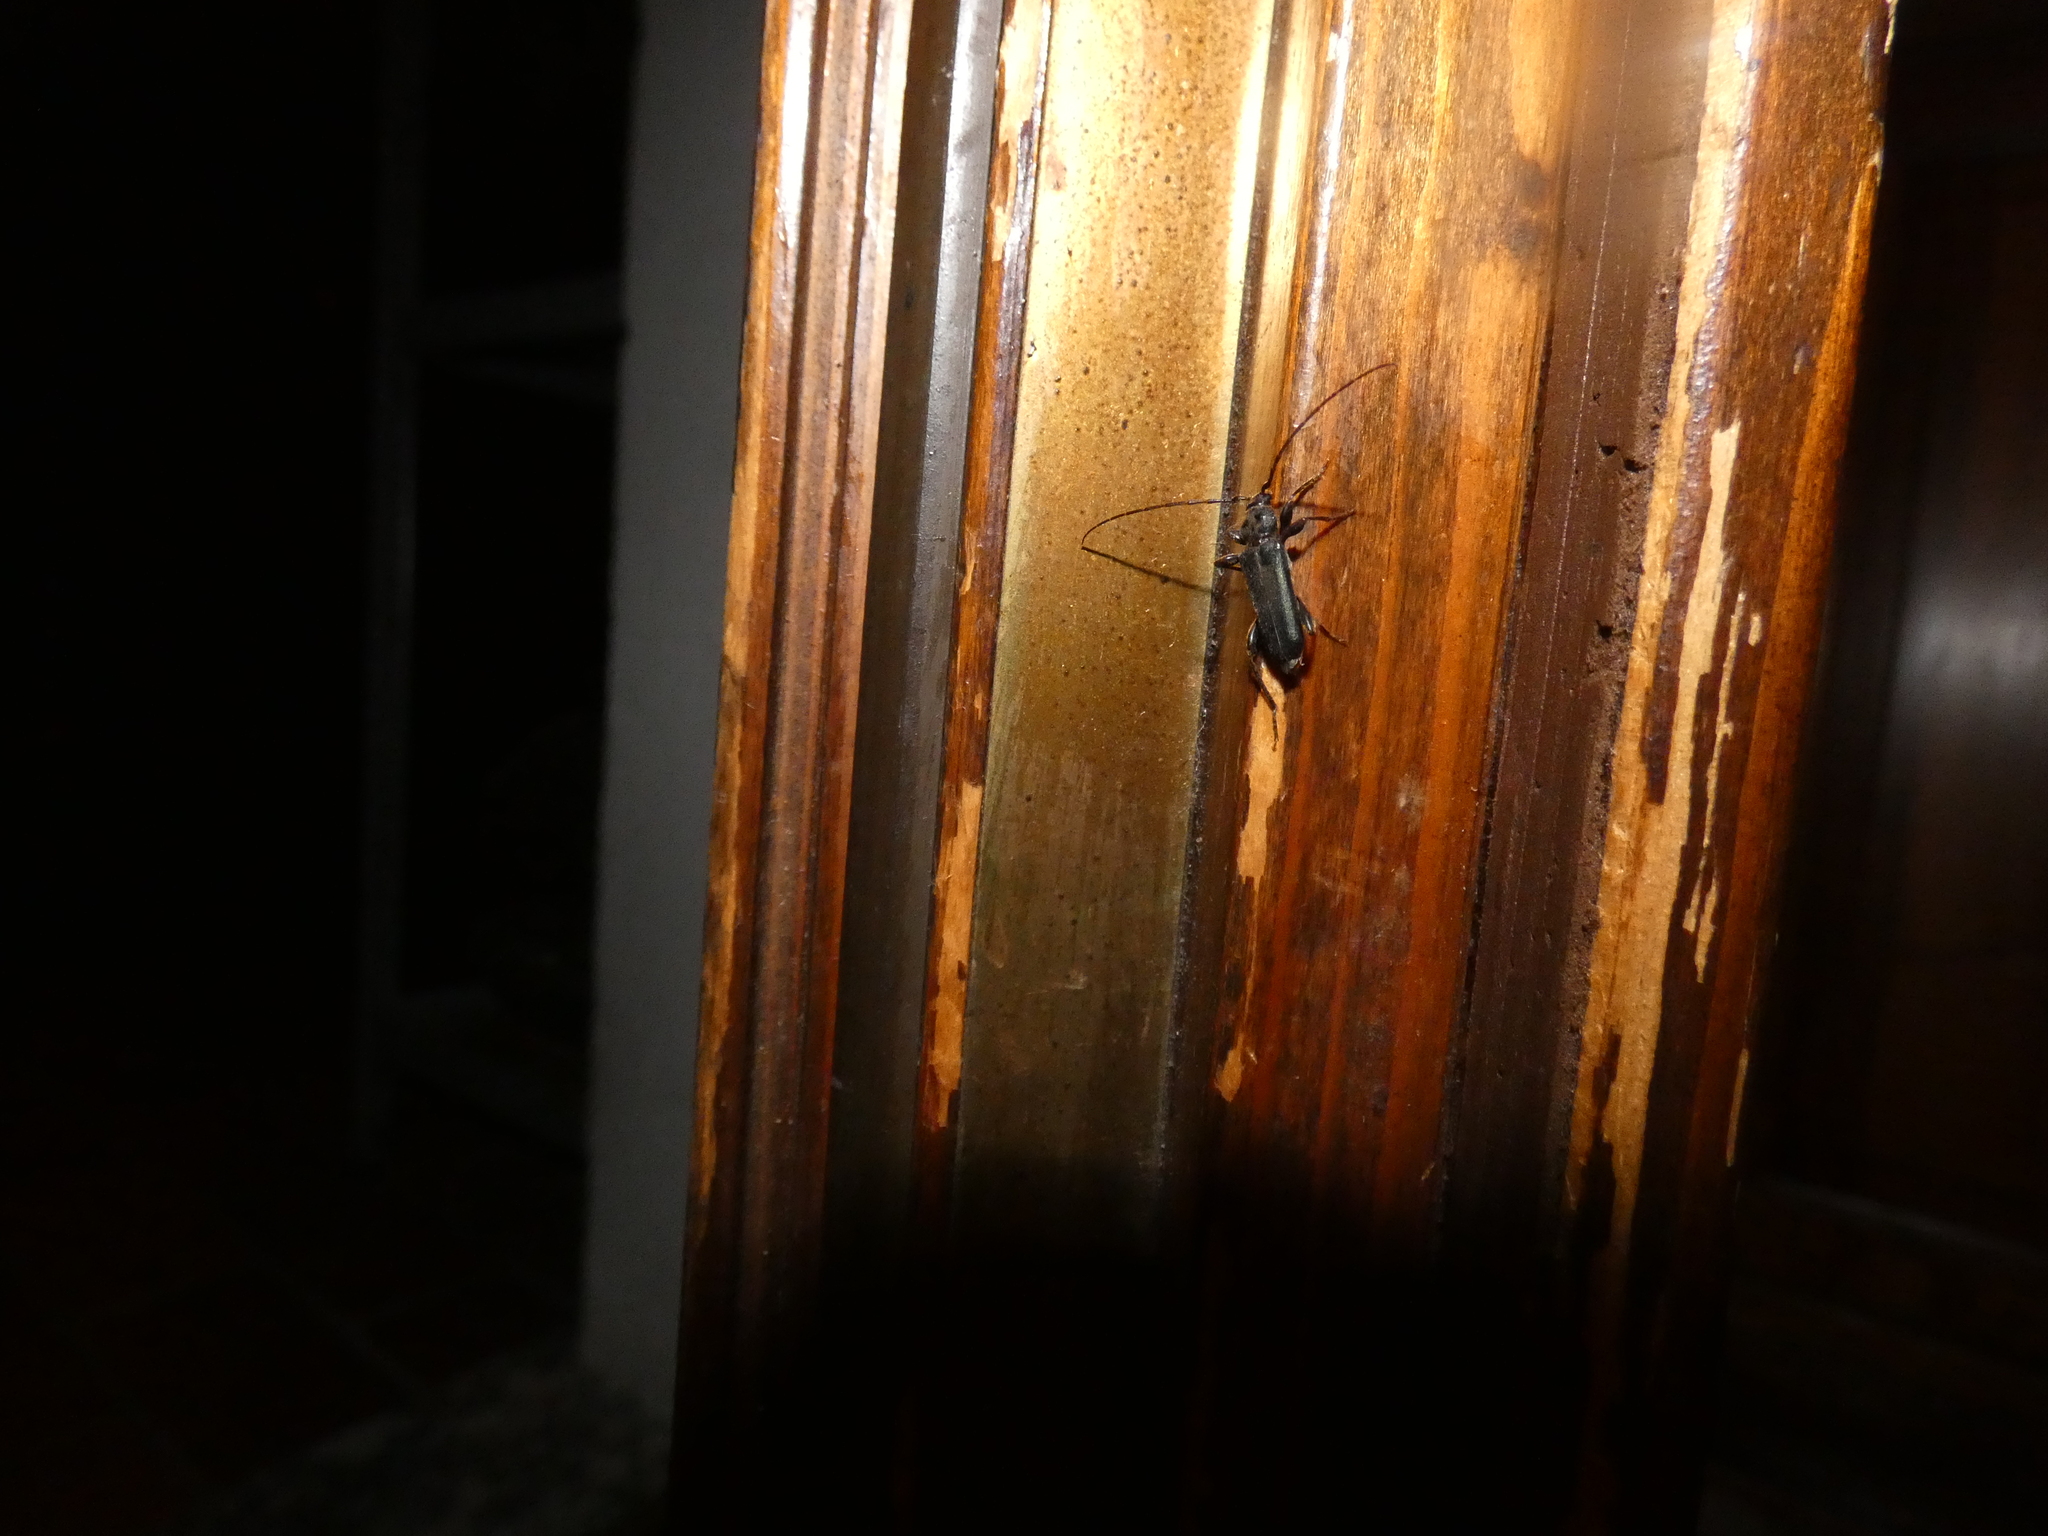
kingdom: Animalia
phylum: Arthropoda
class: Insecta
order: Coleoptera
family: Cerambycidae
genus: Phymatodes
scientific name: Phymatodes testaceus
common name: Long-horned beetle
